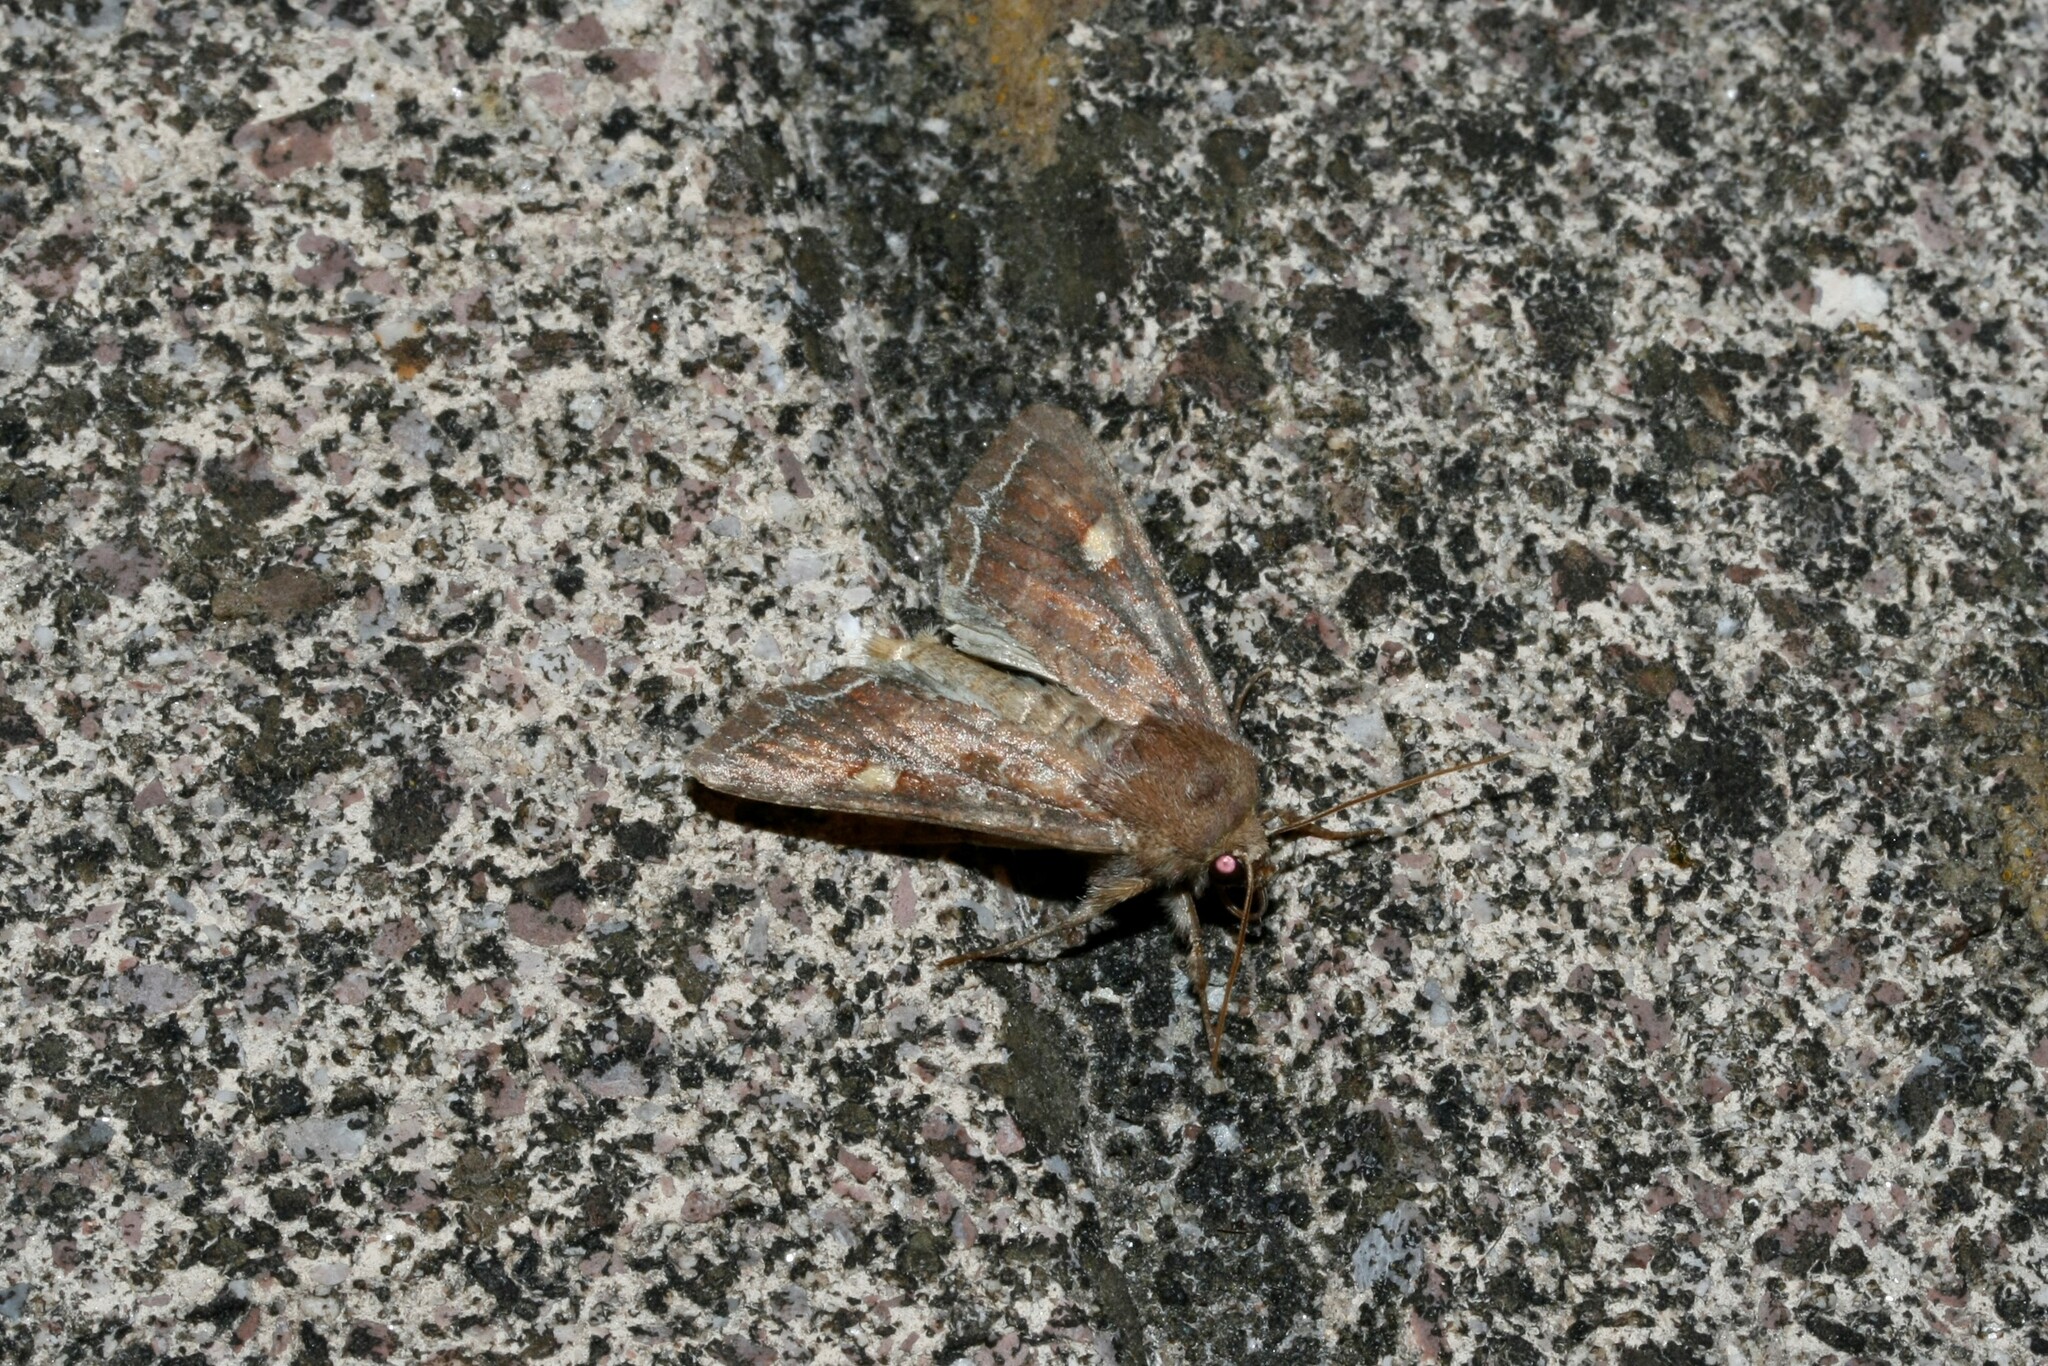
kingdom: Animalia
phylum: Arthropoda
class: Insecta
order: Lepidoptera
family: Noctuidae
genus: Lacanobia
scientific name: Lacanobia oleracea
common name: Bright-line brown-eye
